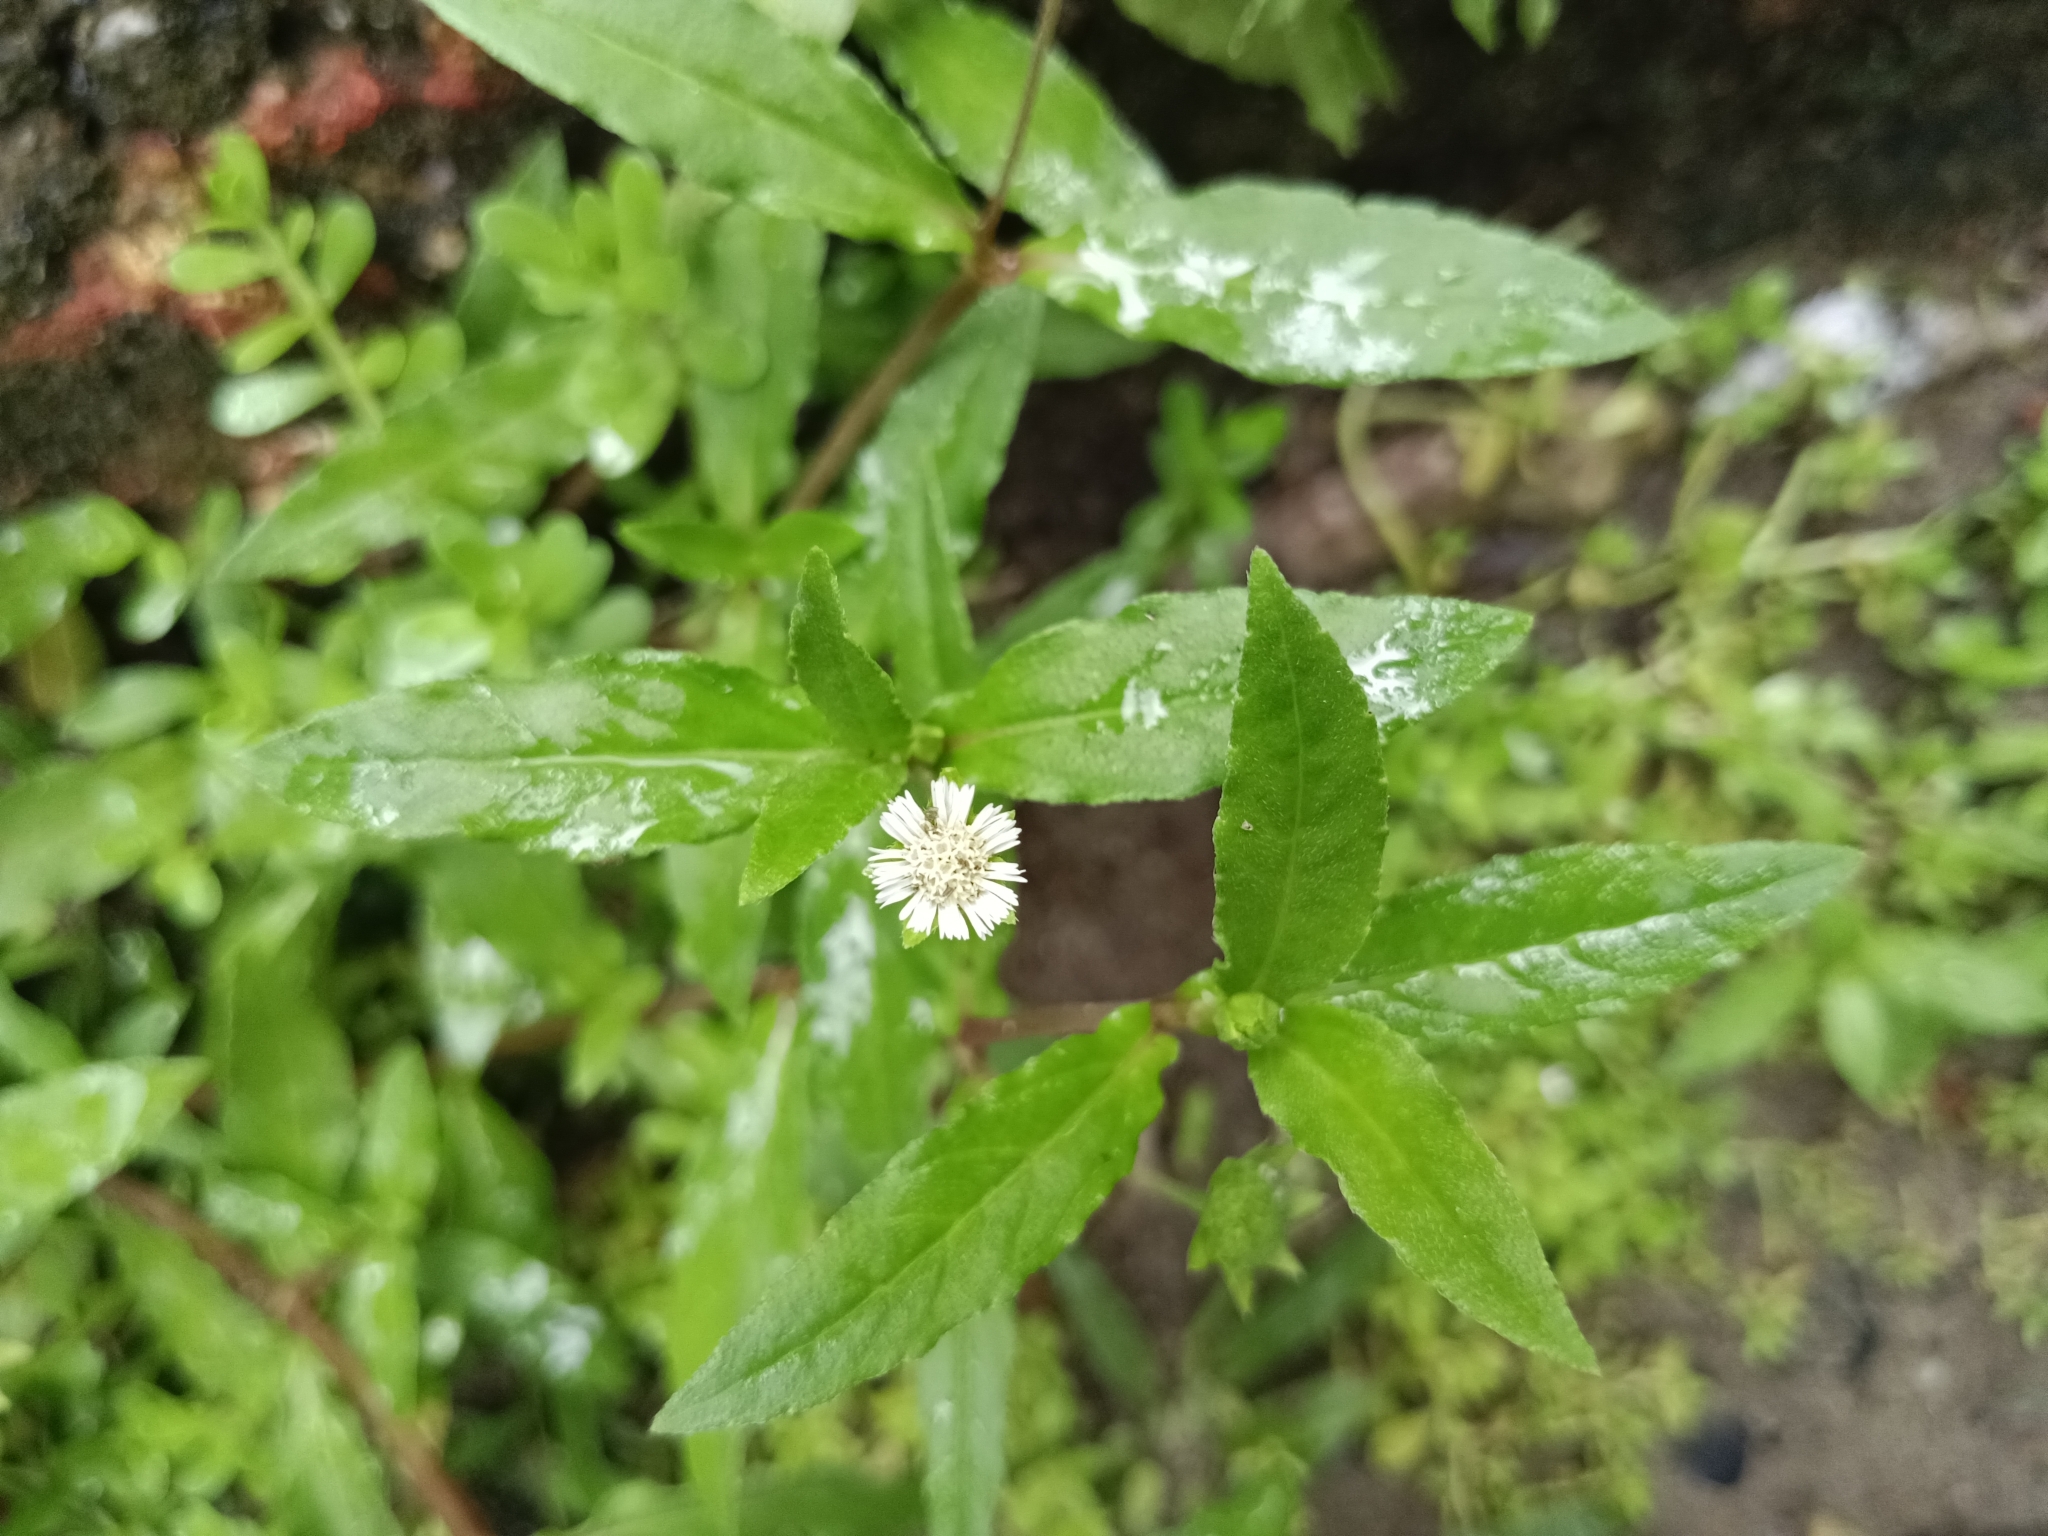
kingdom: Plantae
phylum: Tracheophyta
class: Magnoliopsida
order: Asterales
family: Asteraceae
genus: Eclipta
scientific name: Eclipta prostrata
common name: False daisy
